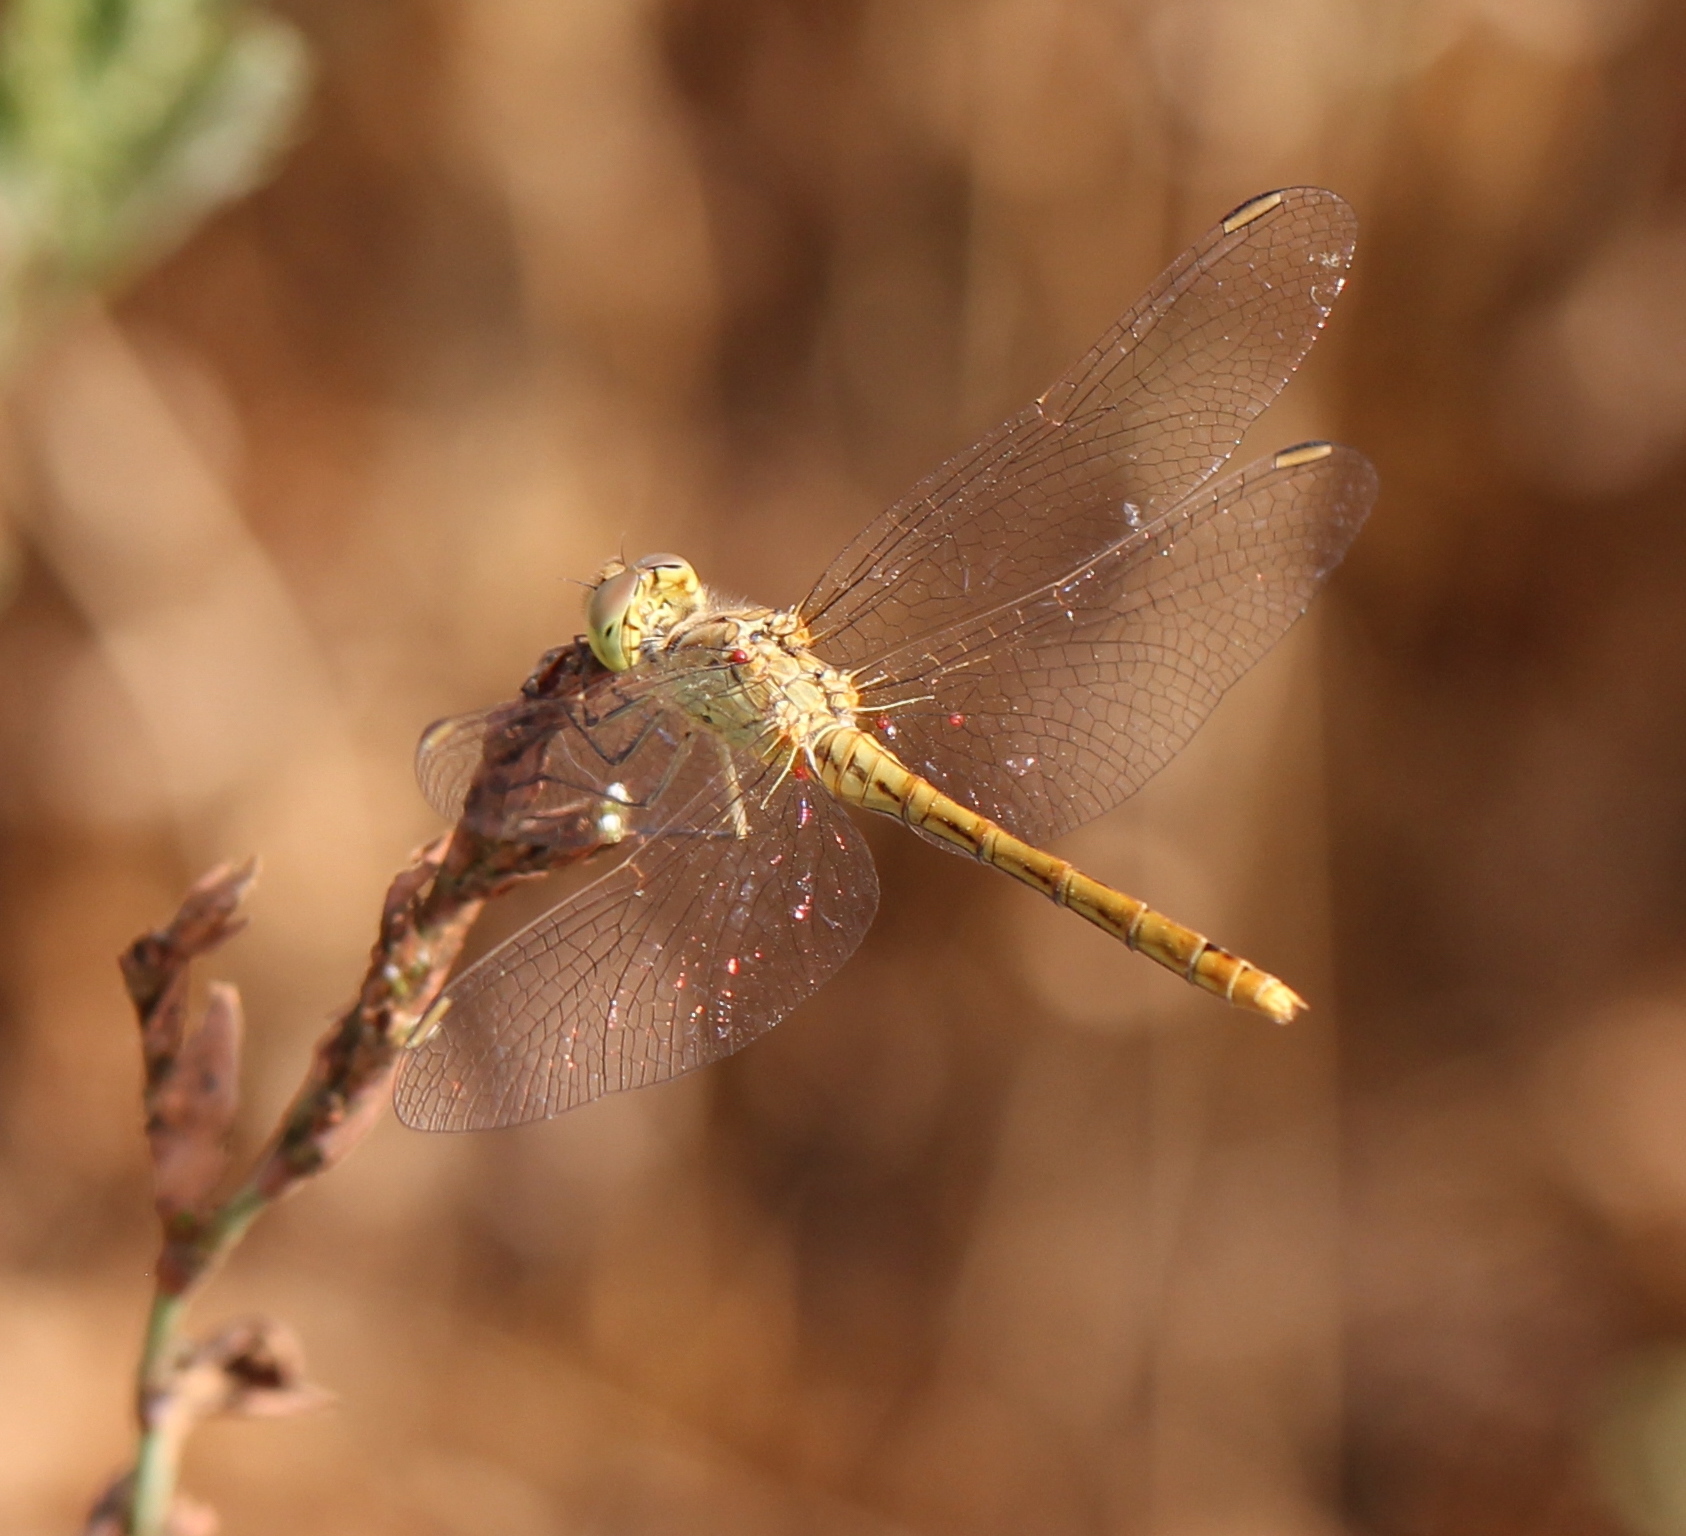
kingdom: Animalia
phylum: Arthropoda
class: Insecta
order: Odonata
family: Libellulidae
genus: Sympetrum
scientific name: Sympetrum meridionale
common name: Southern darter
